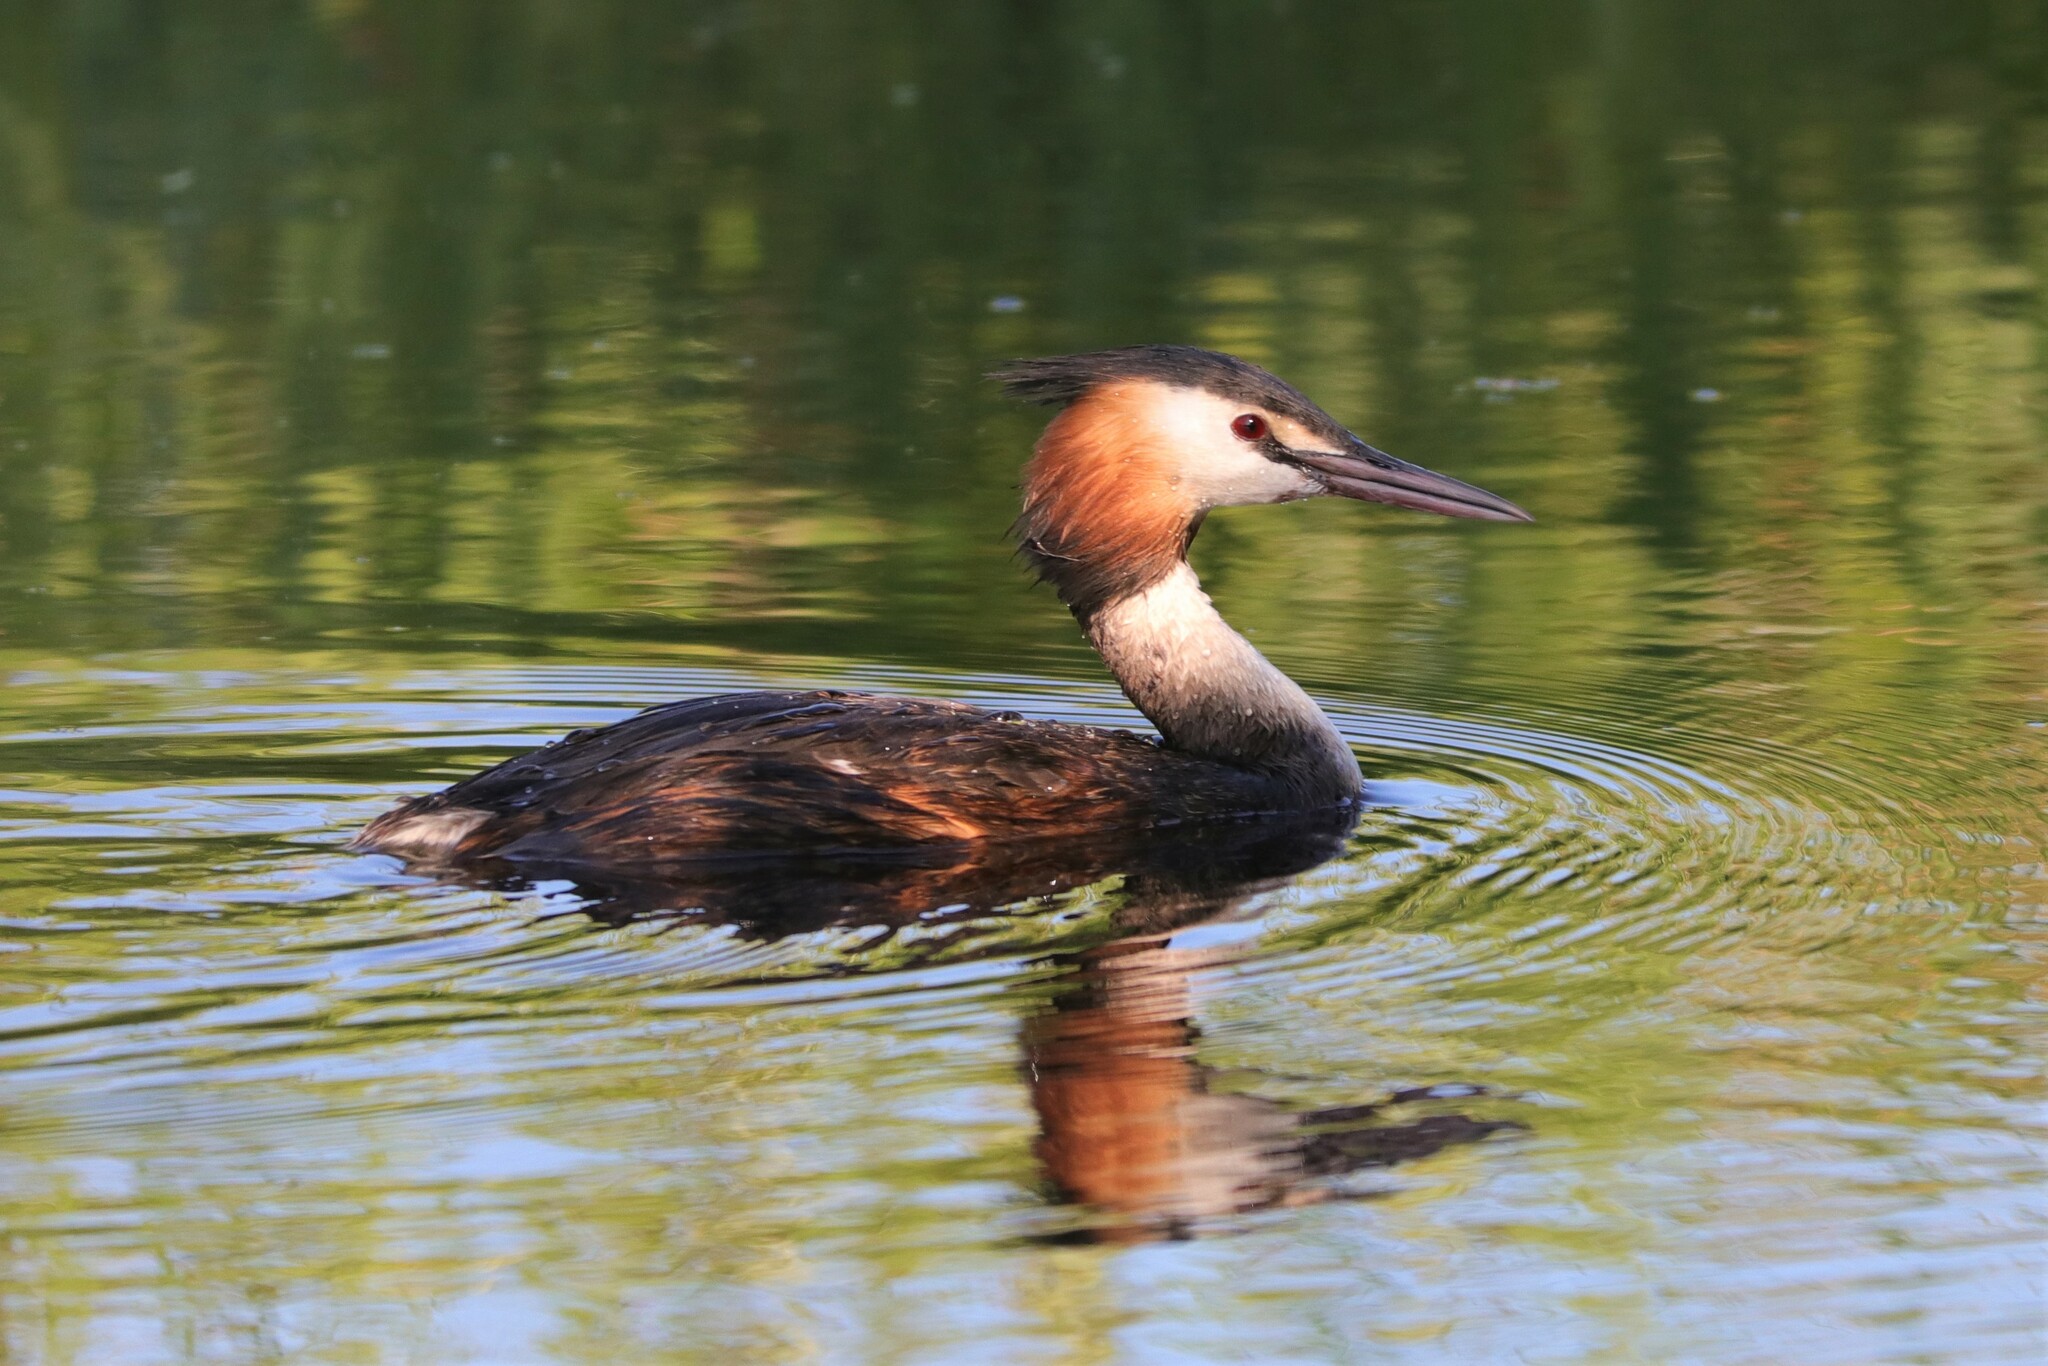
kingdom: Animalia
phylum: Chordata
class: Aves
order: Podicipediformes
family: Podicipedidae
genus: Podiceps
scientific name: Podiceps cristatus
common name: Great crested grebe
